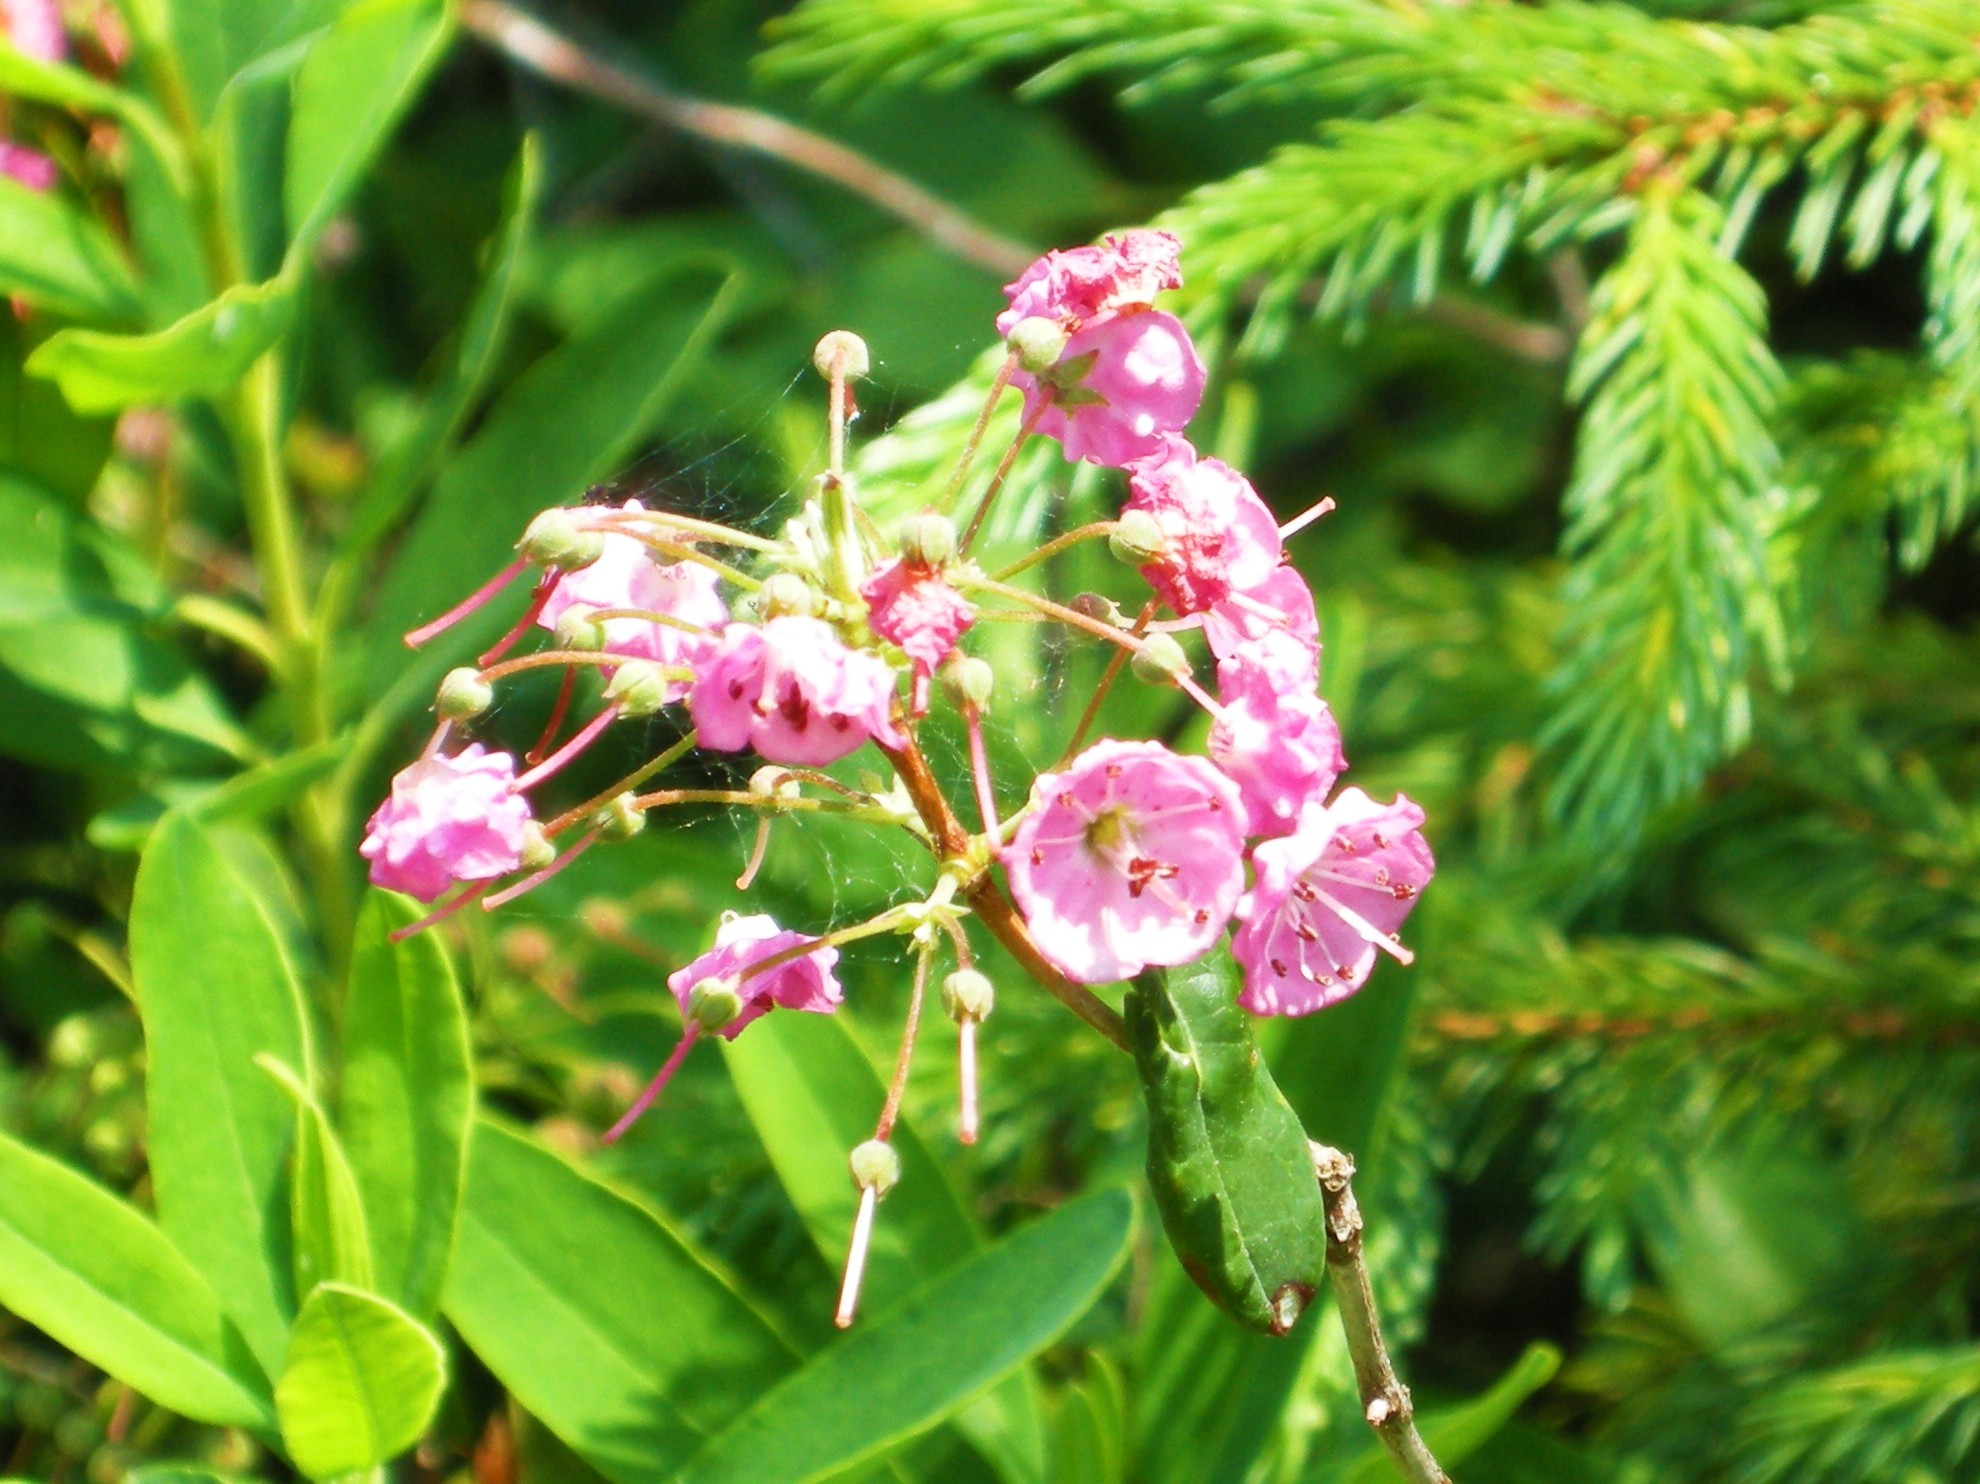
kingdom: Plantae
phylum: Tracheophyta
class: Magnoliopsida
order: Ericales
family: Ericaceae
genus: Kalmia
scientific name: Kalmia angustifolia
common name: Sheep-laurel
